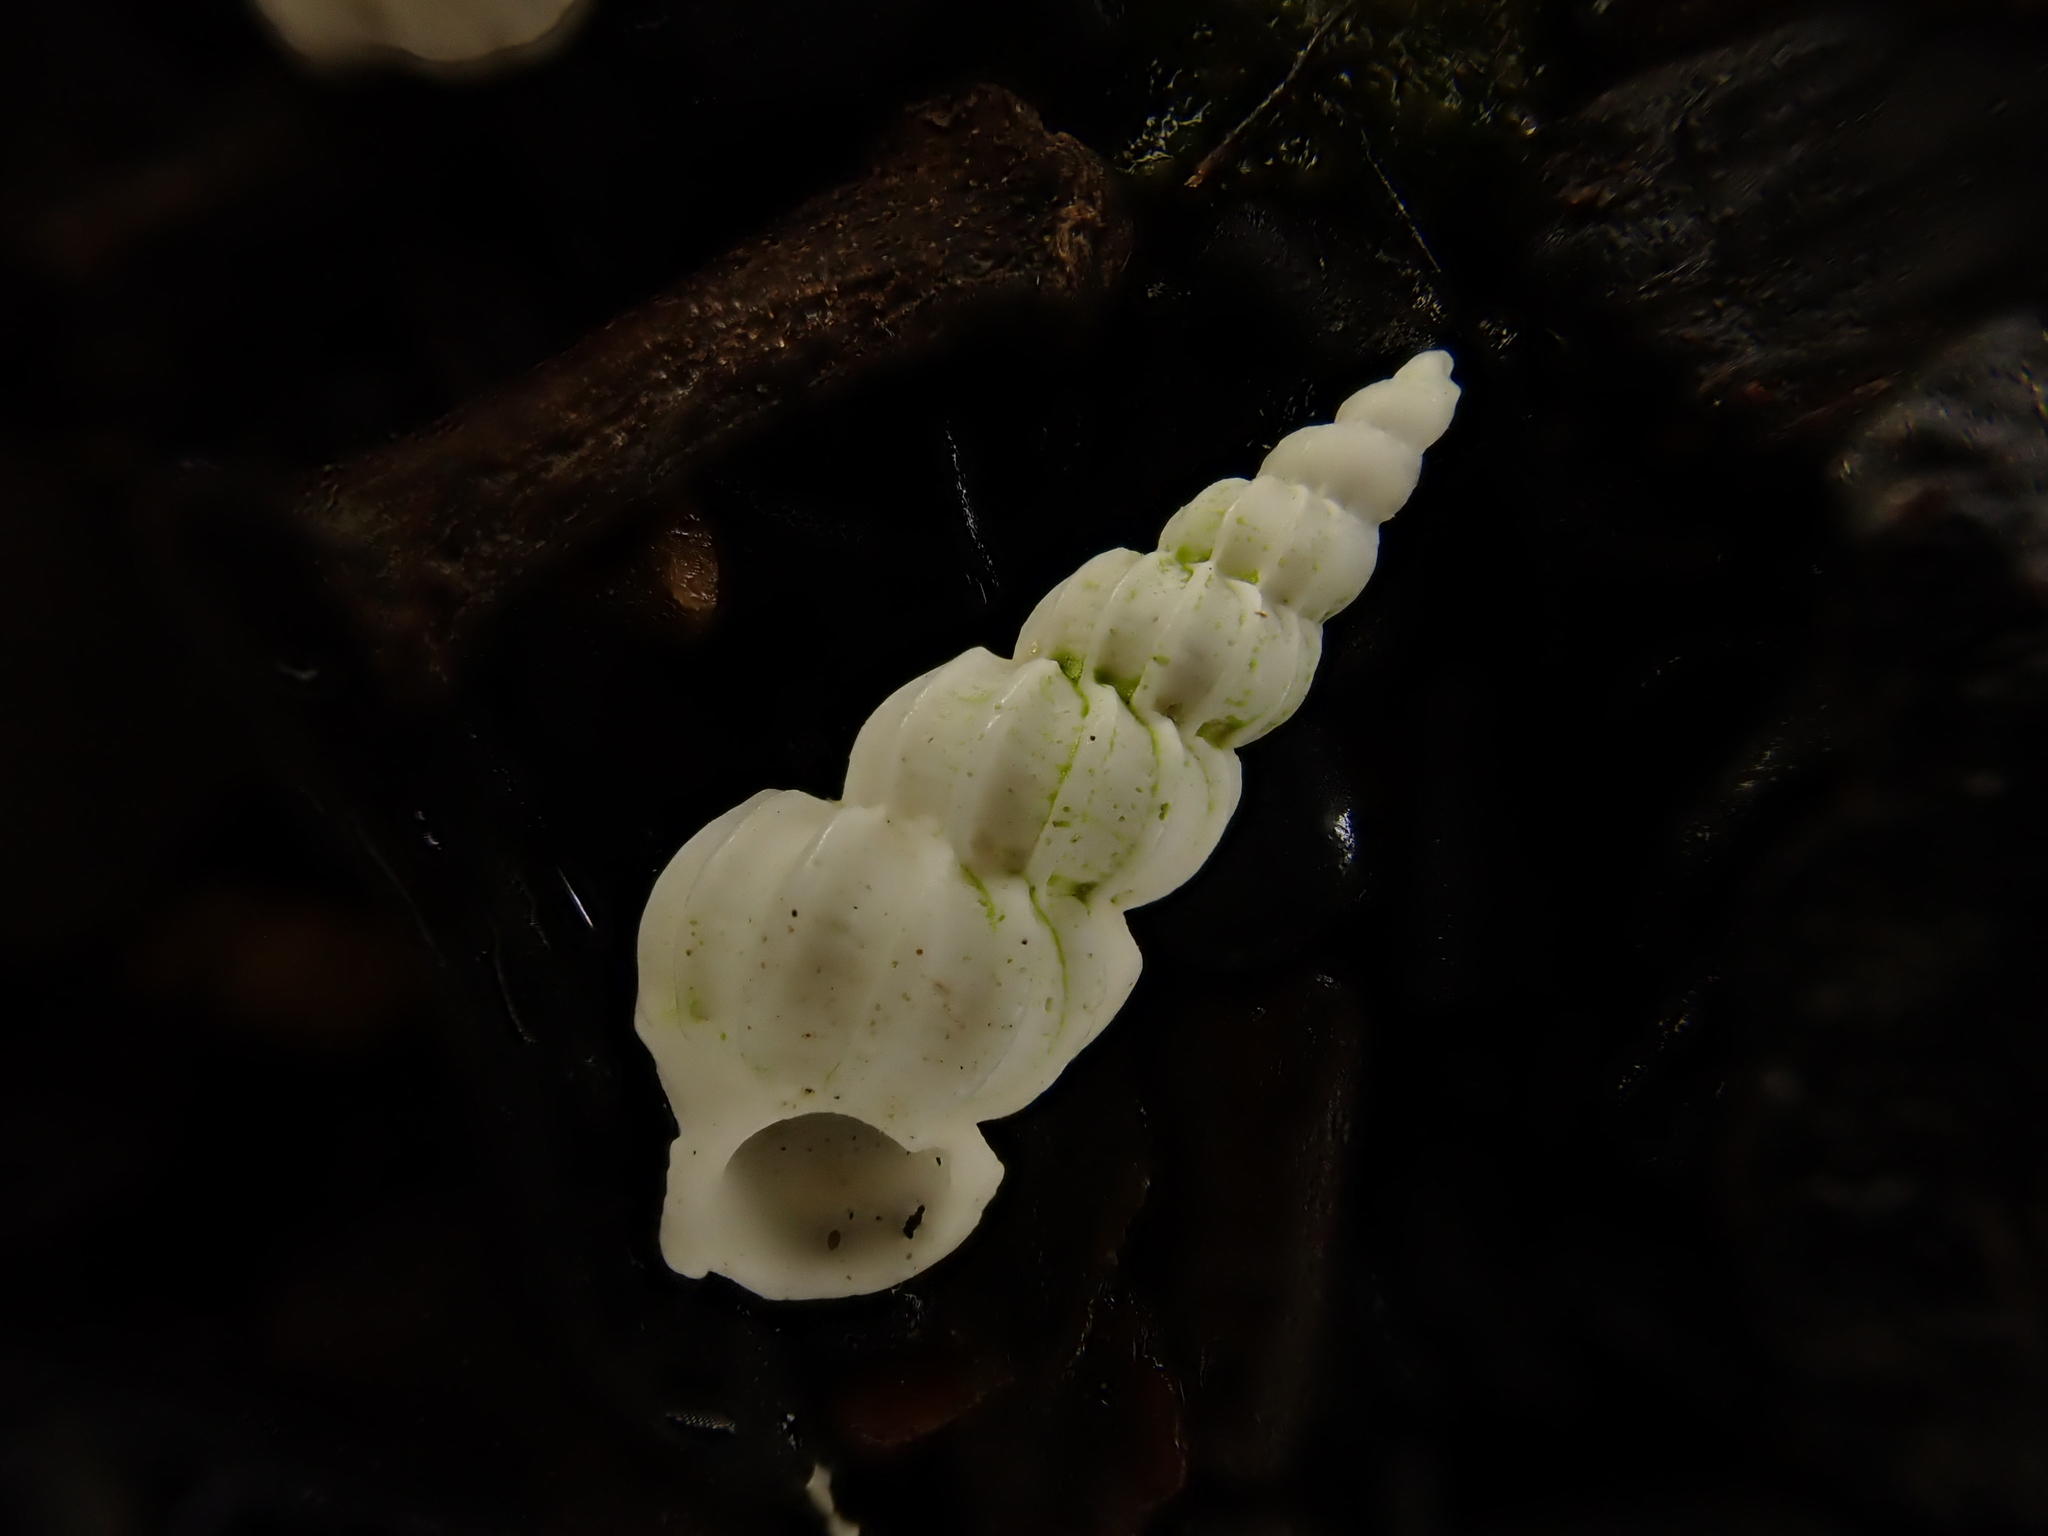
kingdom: Animalia
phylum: Mollusca
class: Gastropoda
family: Epitoniidae
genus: Cirsotrema
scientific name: Cirsotrema zelebori
